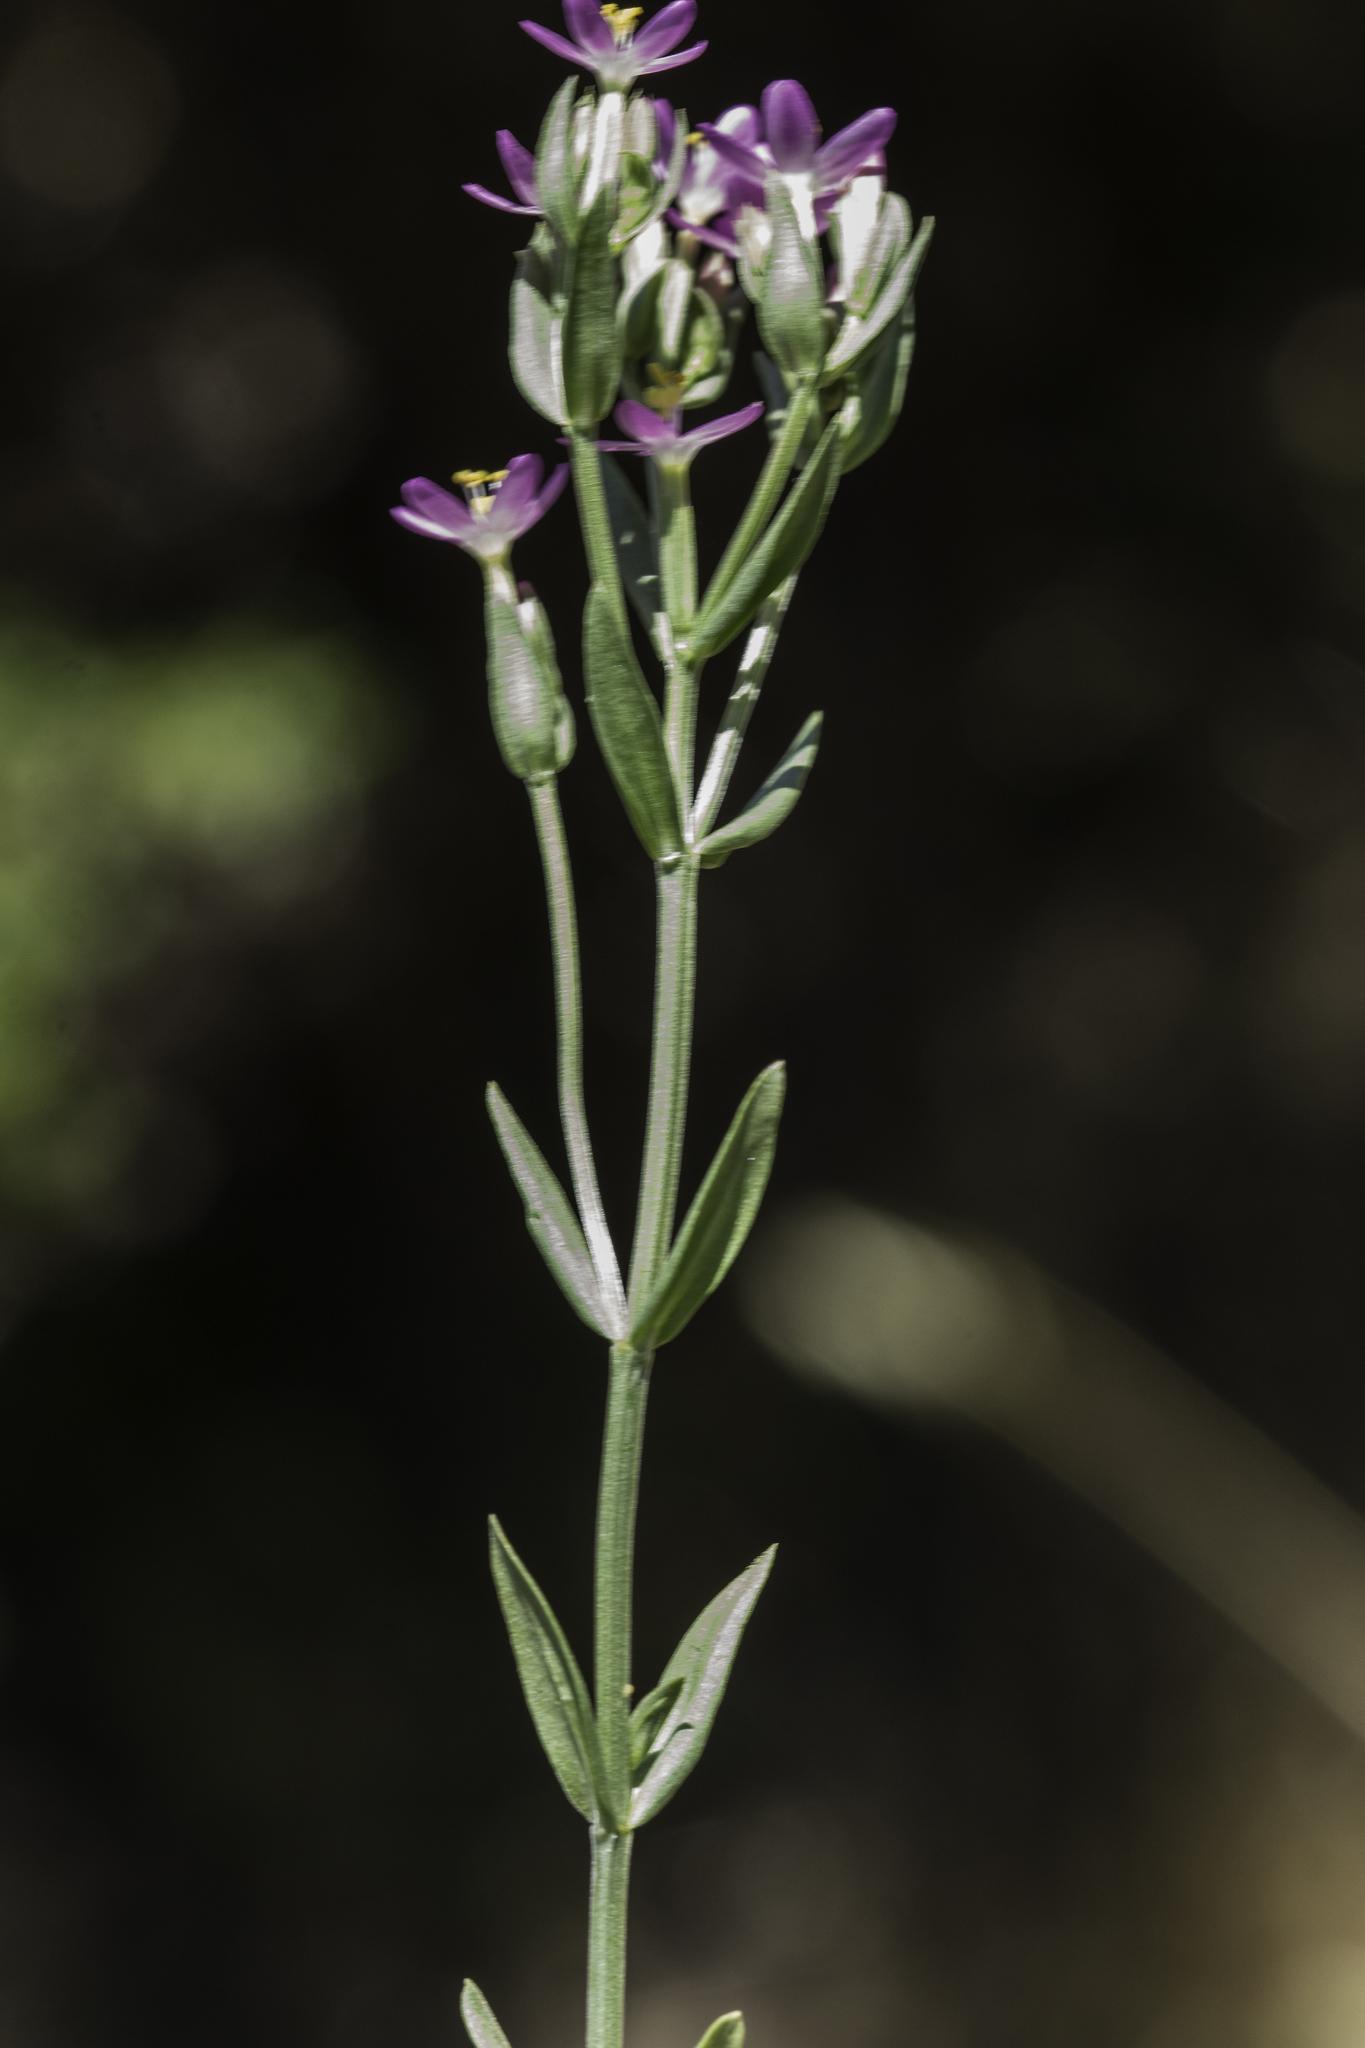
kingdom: Plantae
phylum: Tracheophyta
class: Magnoliopsida
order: Gentianales
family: Gentianaceae
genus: Zeltnera
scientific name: Zeltnera muhlenbergii
